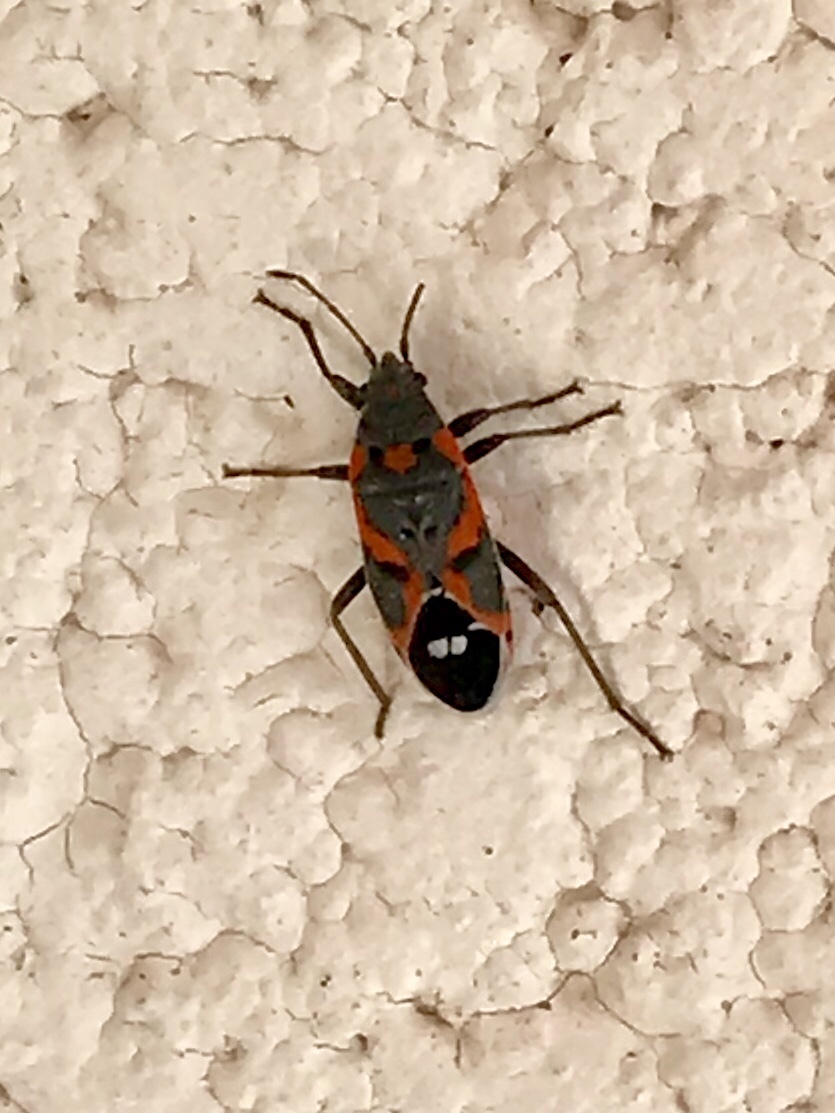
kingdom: Animalia
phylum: Arthropoda
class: Insecta
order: Hemiptera
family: Lygaeidae
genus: Lygaeus
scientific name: Lygaeus kalmii
